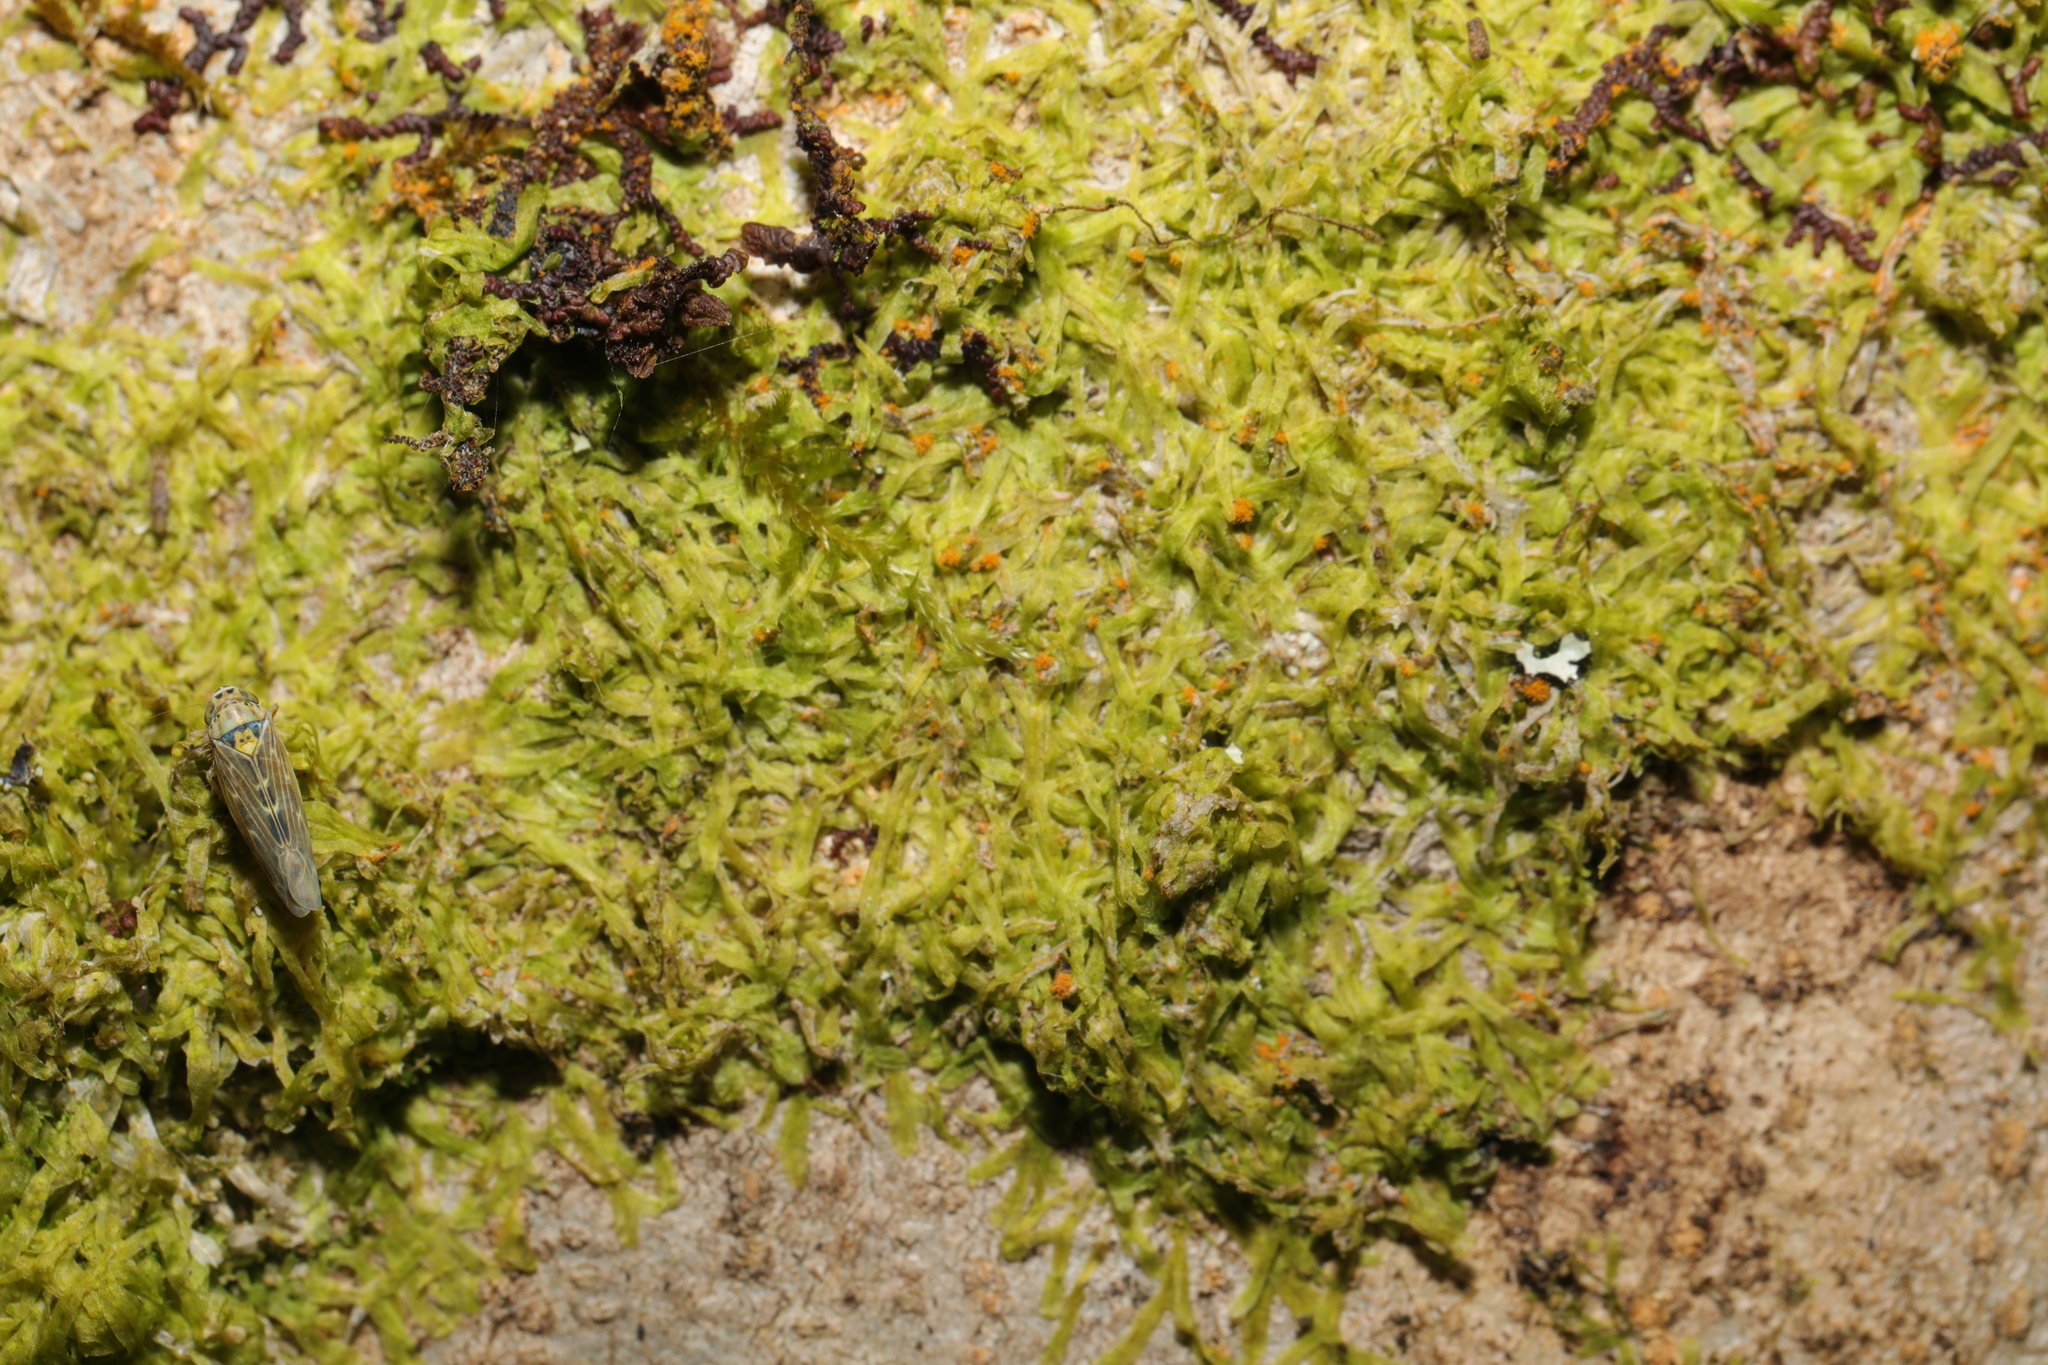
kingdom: Plantae
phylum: Marchantiophyta
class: Jungermanniopsida
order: Metzgeriales
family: Metzgeriaceae
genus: Metzgeria
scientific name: Metzgeria furcata
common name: Forked veilwort
